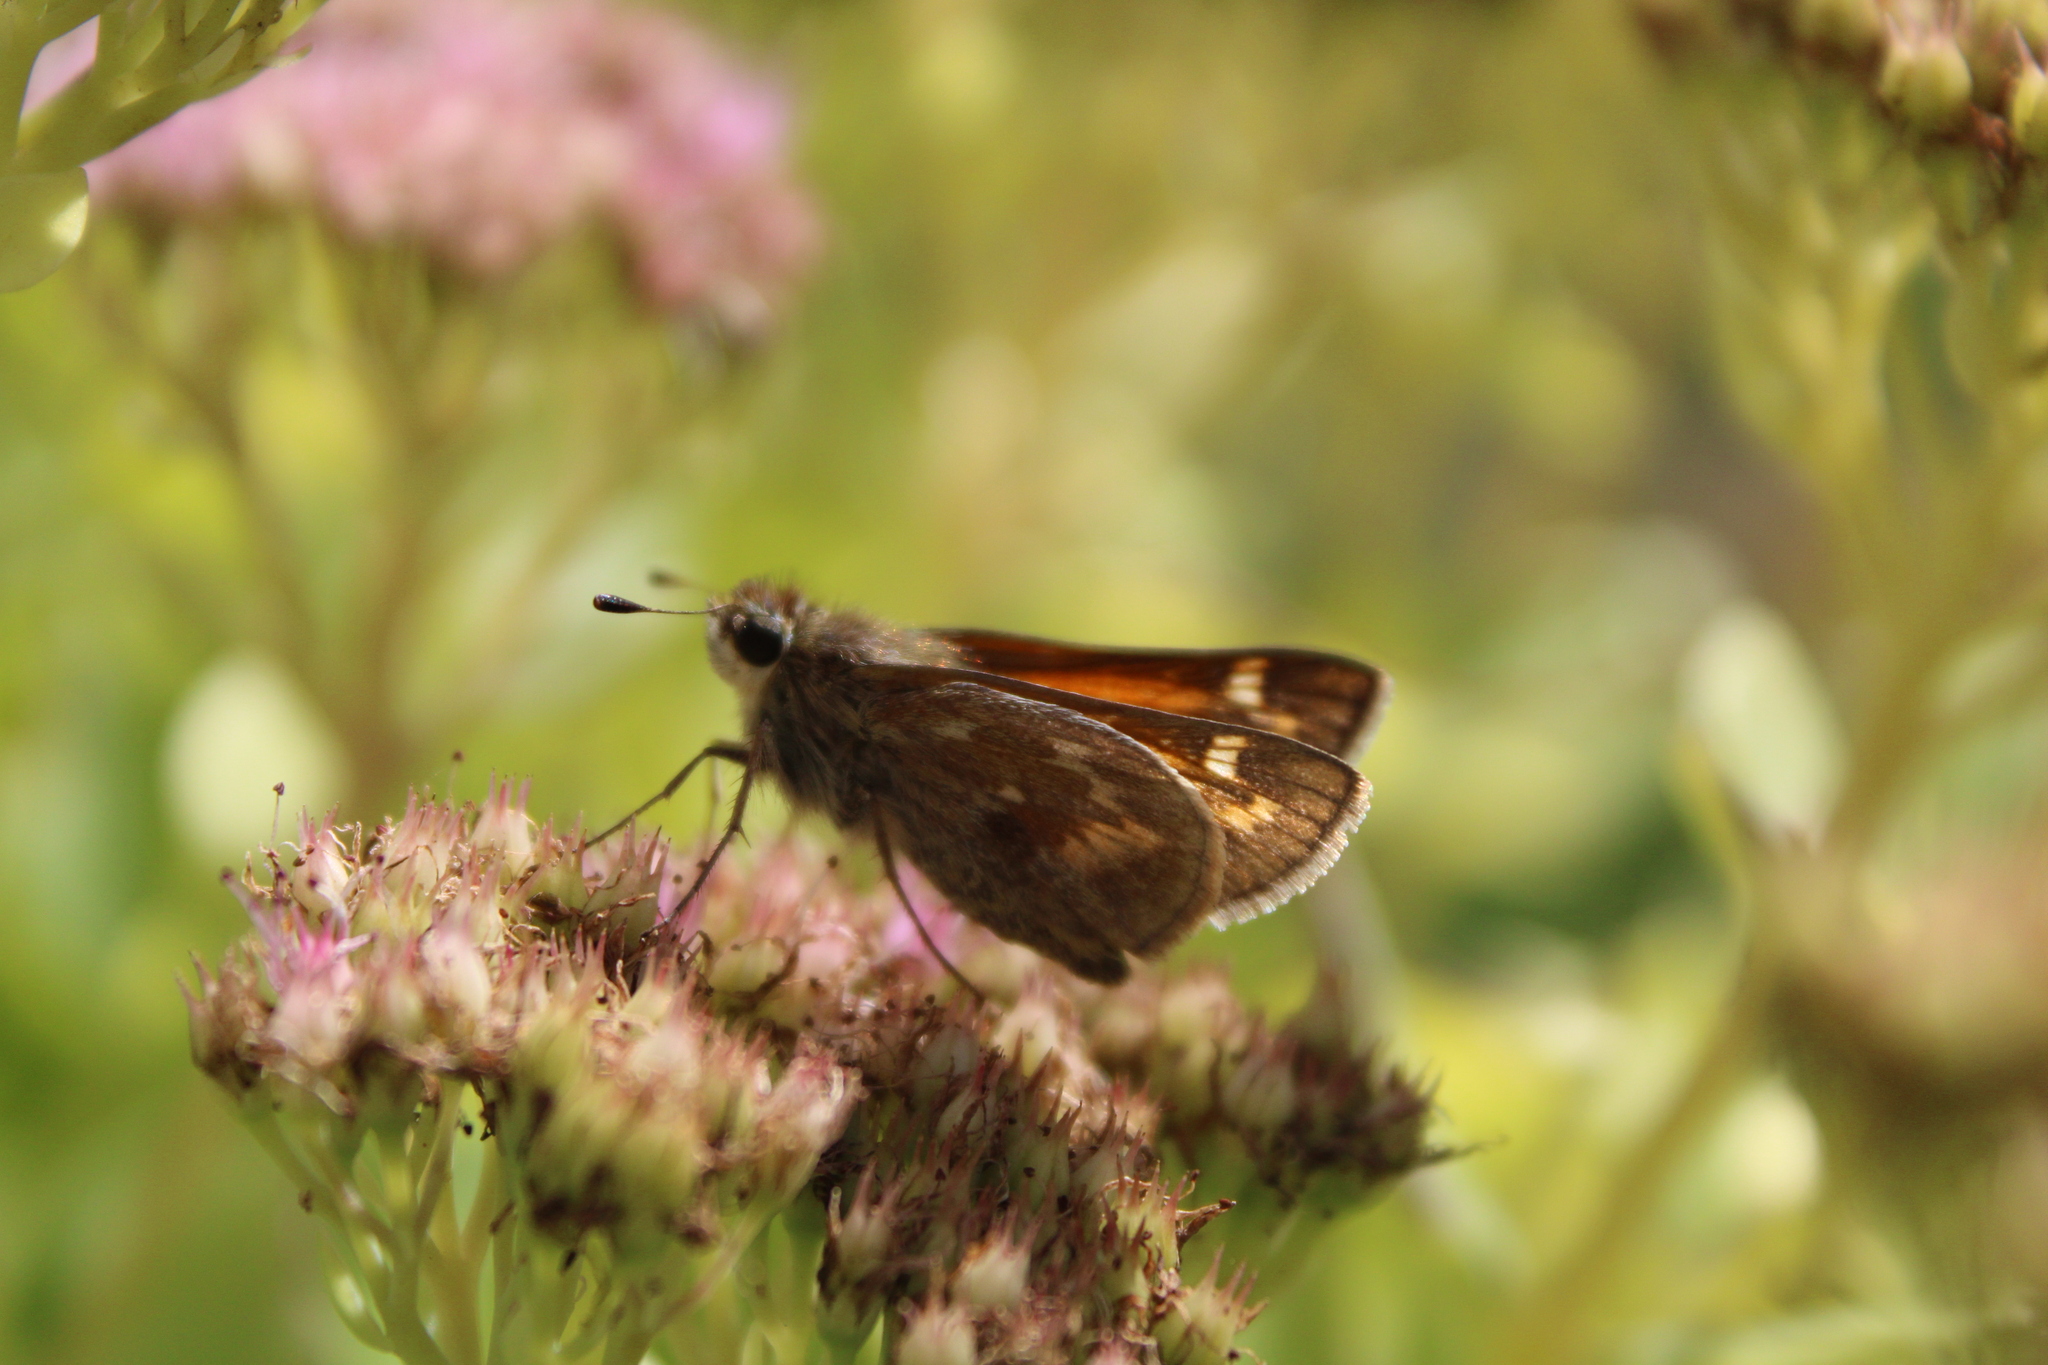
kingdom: Animalia
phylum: Arthropoda
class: Insecta
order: Lepidoptera
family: Hesperiidae
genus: Atalopedes
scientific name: Atalopedes
